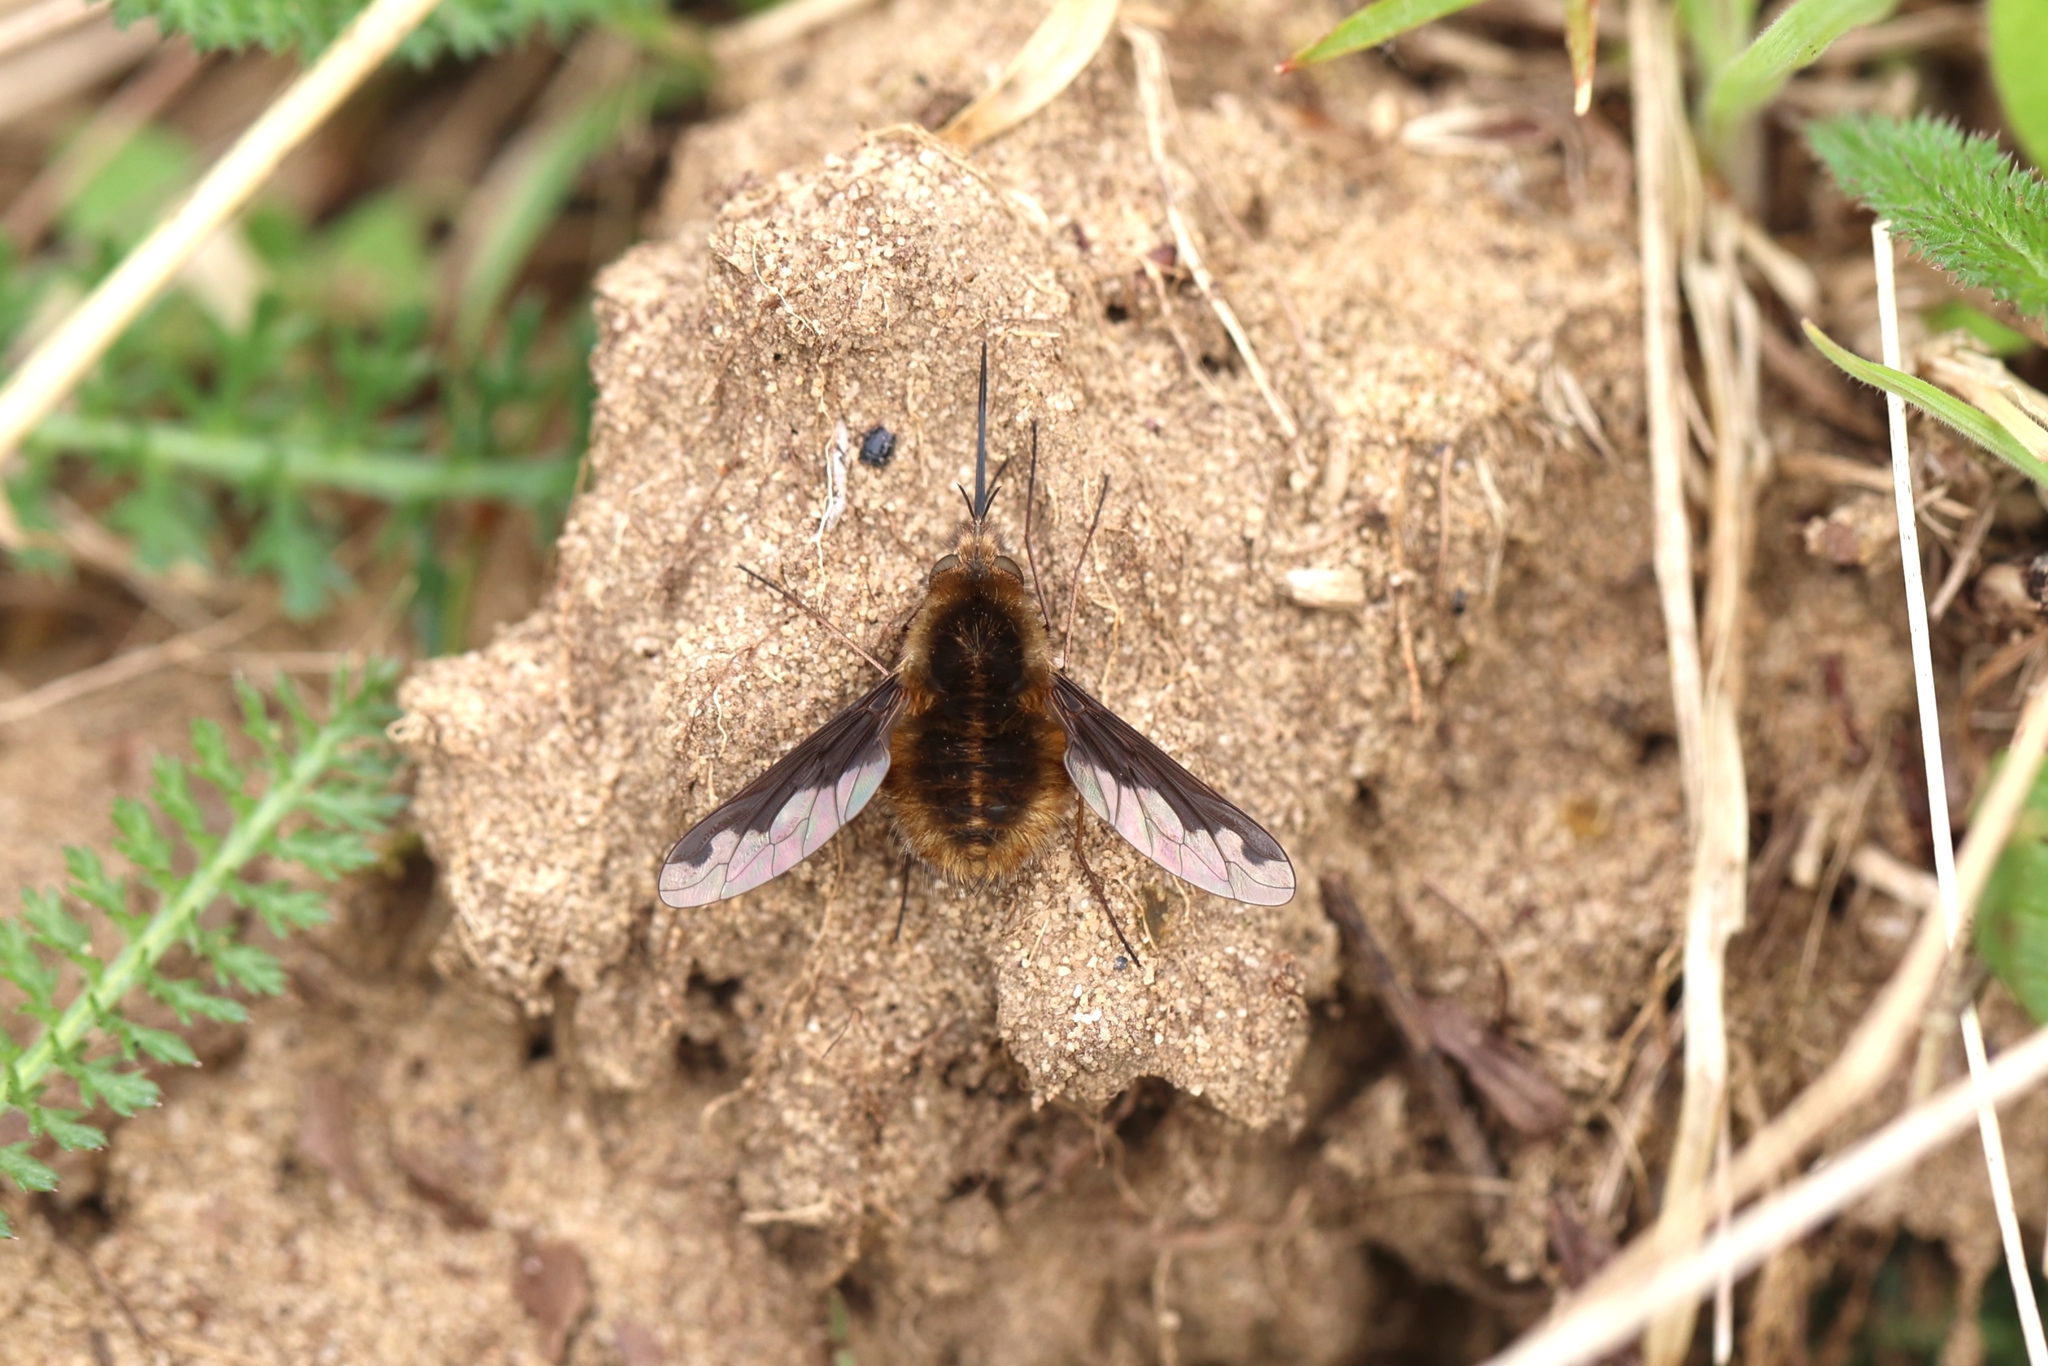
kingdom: Animalia
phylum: Arthropoda
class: Insecta
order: Diptera
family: Bombyliidae
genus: Bombylius
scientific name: Bombylius major
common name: Bee fly
